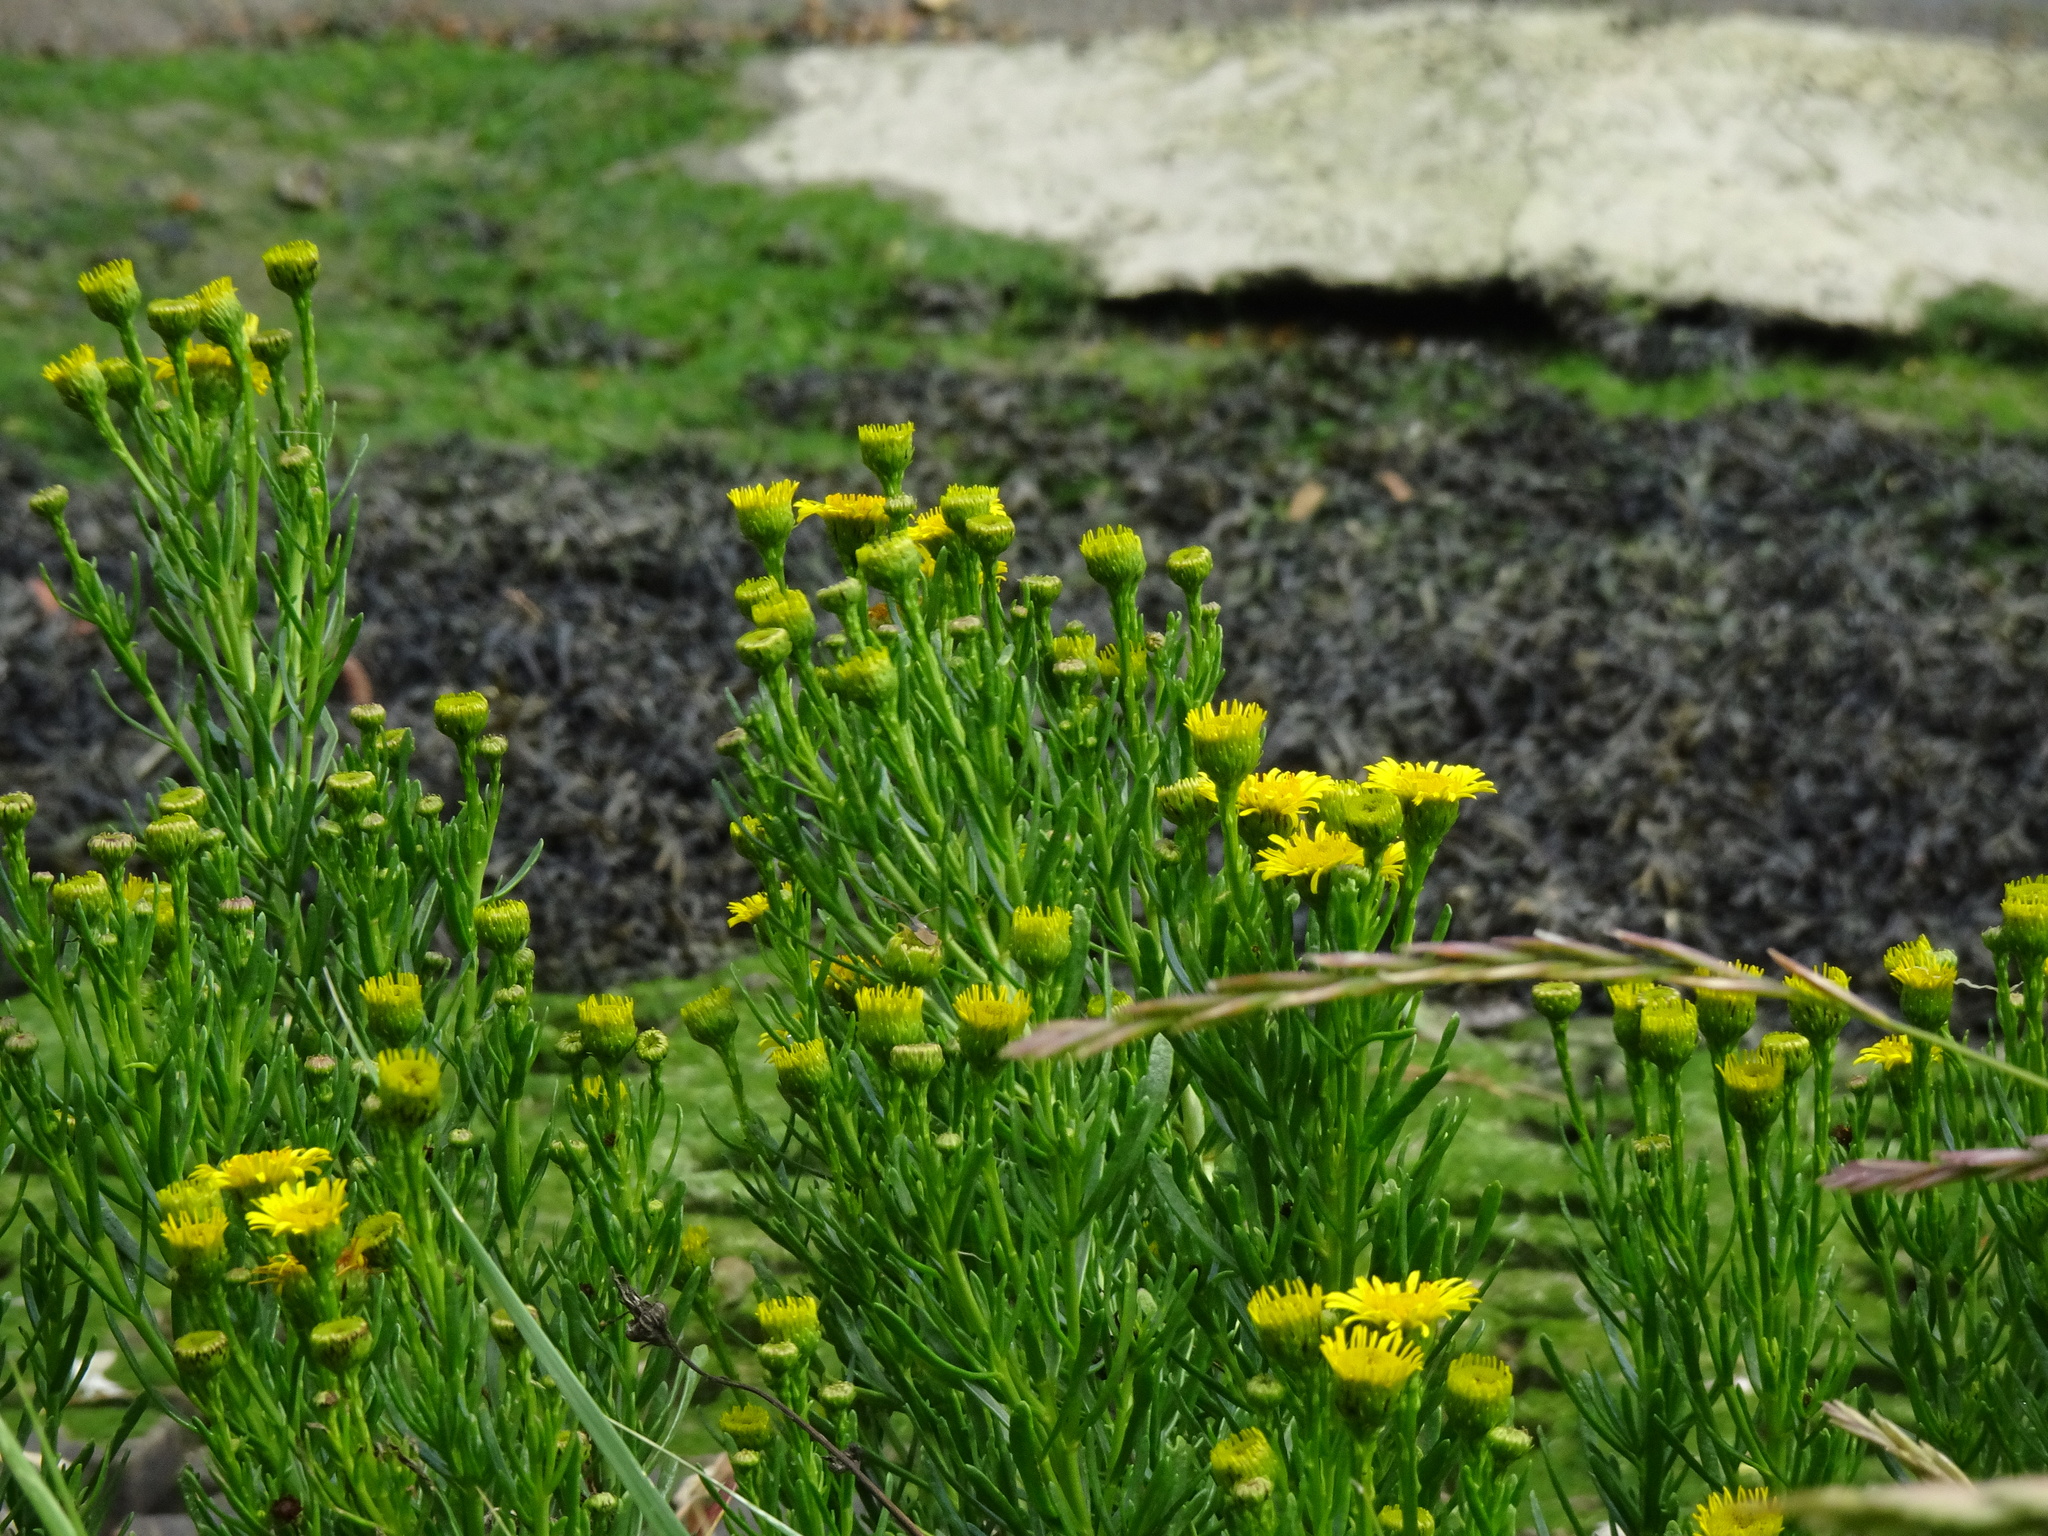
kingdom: Plantae
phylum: Tracheophyta
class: Magnoliopsida
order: Asterales
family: Asteraceae
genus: Limbarda
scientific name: Limbarda crithmoides
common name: Golden samphire
